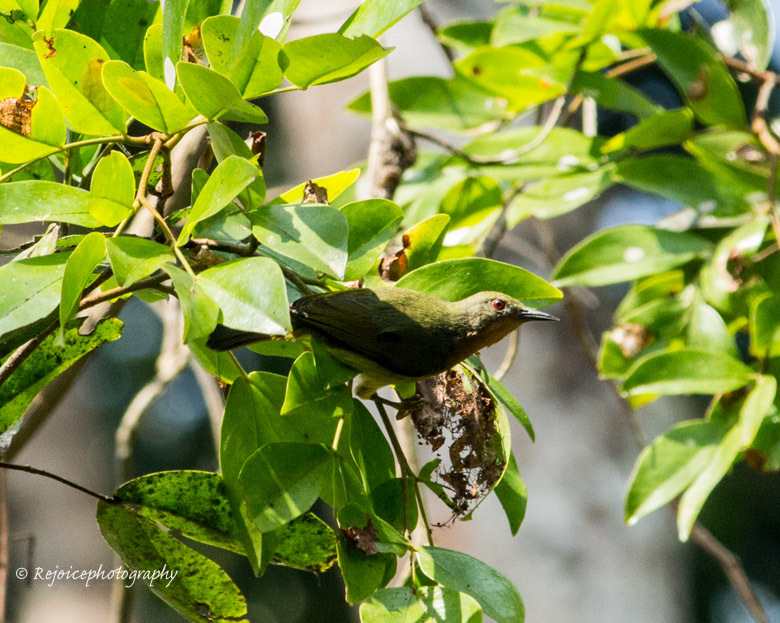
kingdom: Animalia
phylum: Chordata
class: Aves
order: Passeriformes
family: Nectariniidae
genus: Chalcoparia
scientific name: Chalcoparia singalensis
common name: Ruby-cheeked sunbird
